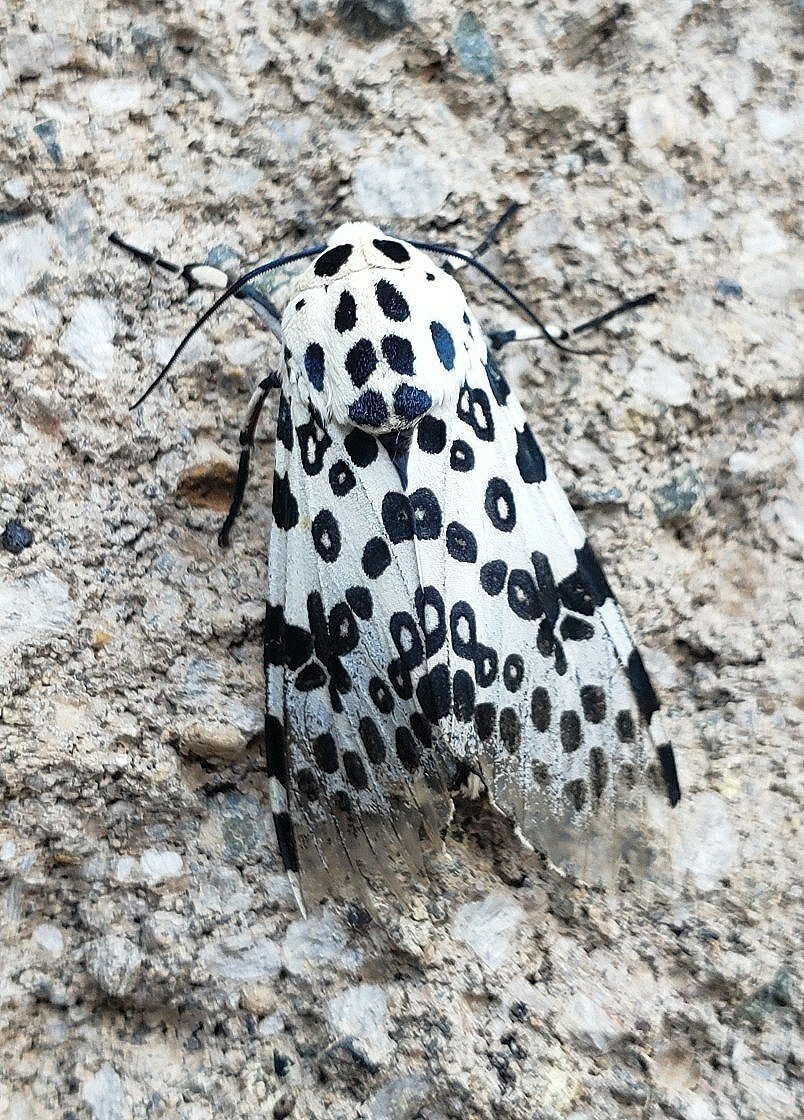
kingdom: Animalia
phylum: Arthropoda
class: Insecta
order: Lepidoptera
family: Erebidae
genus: Hypercompe
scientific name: Hypercompe scribonia
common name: Giant leopard moth
